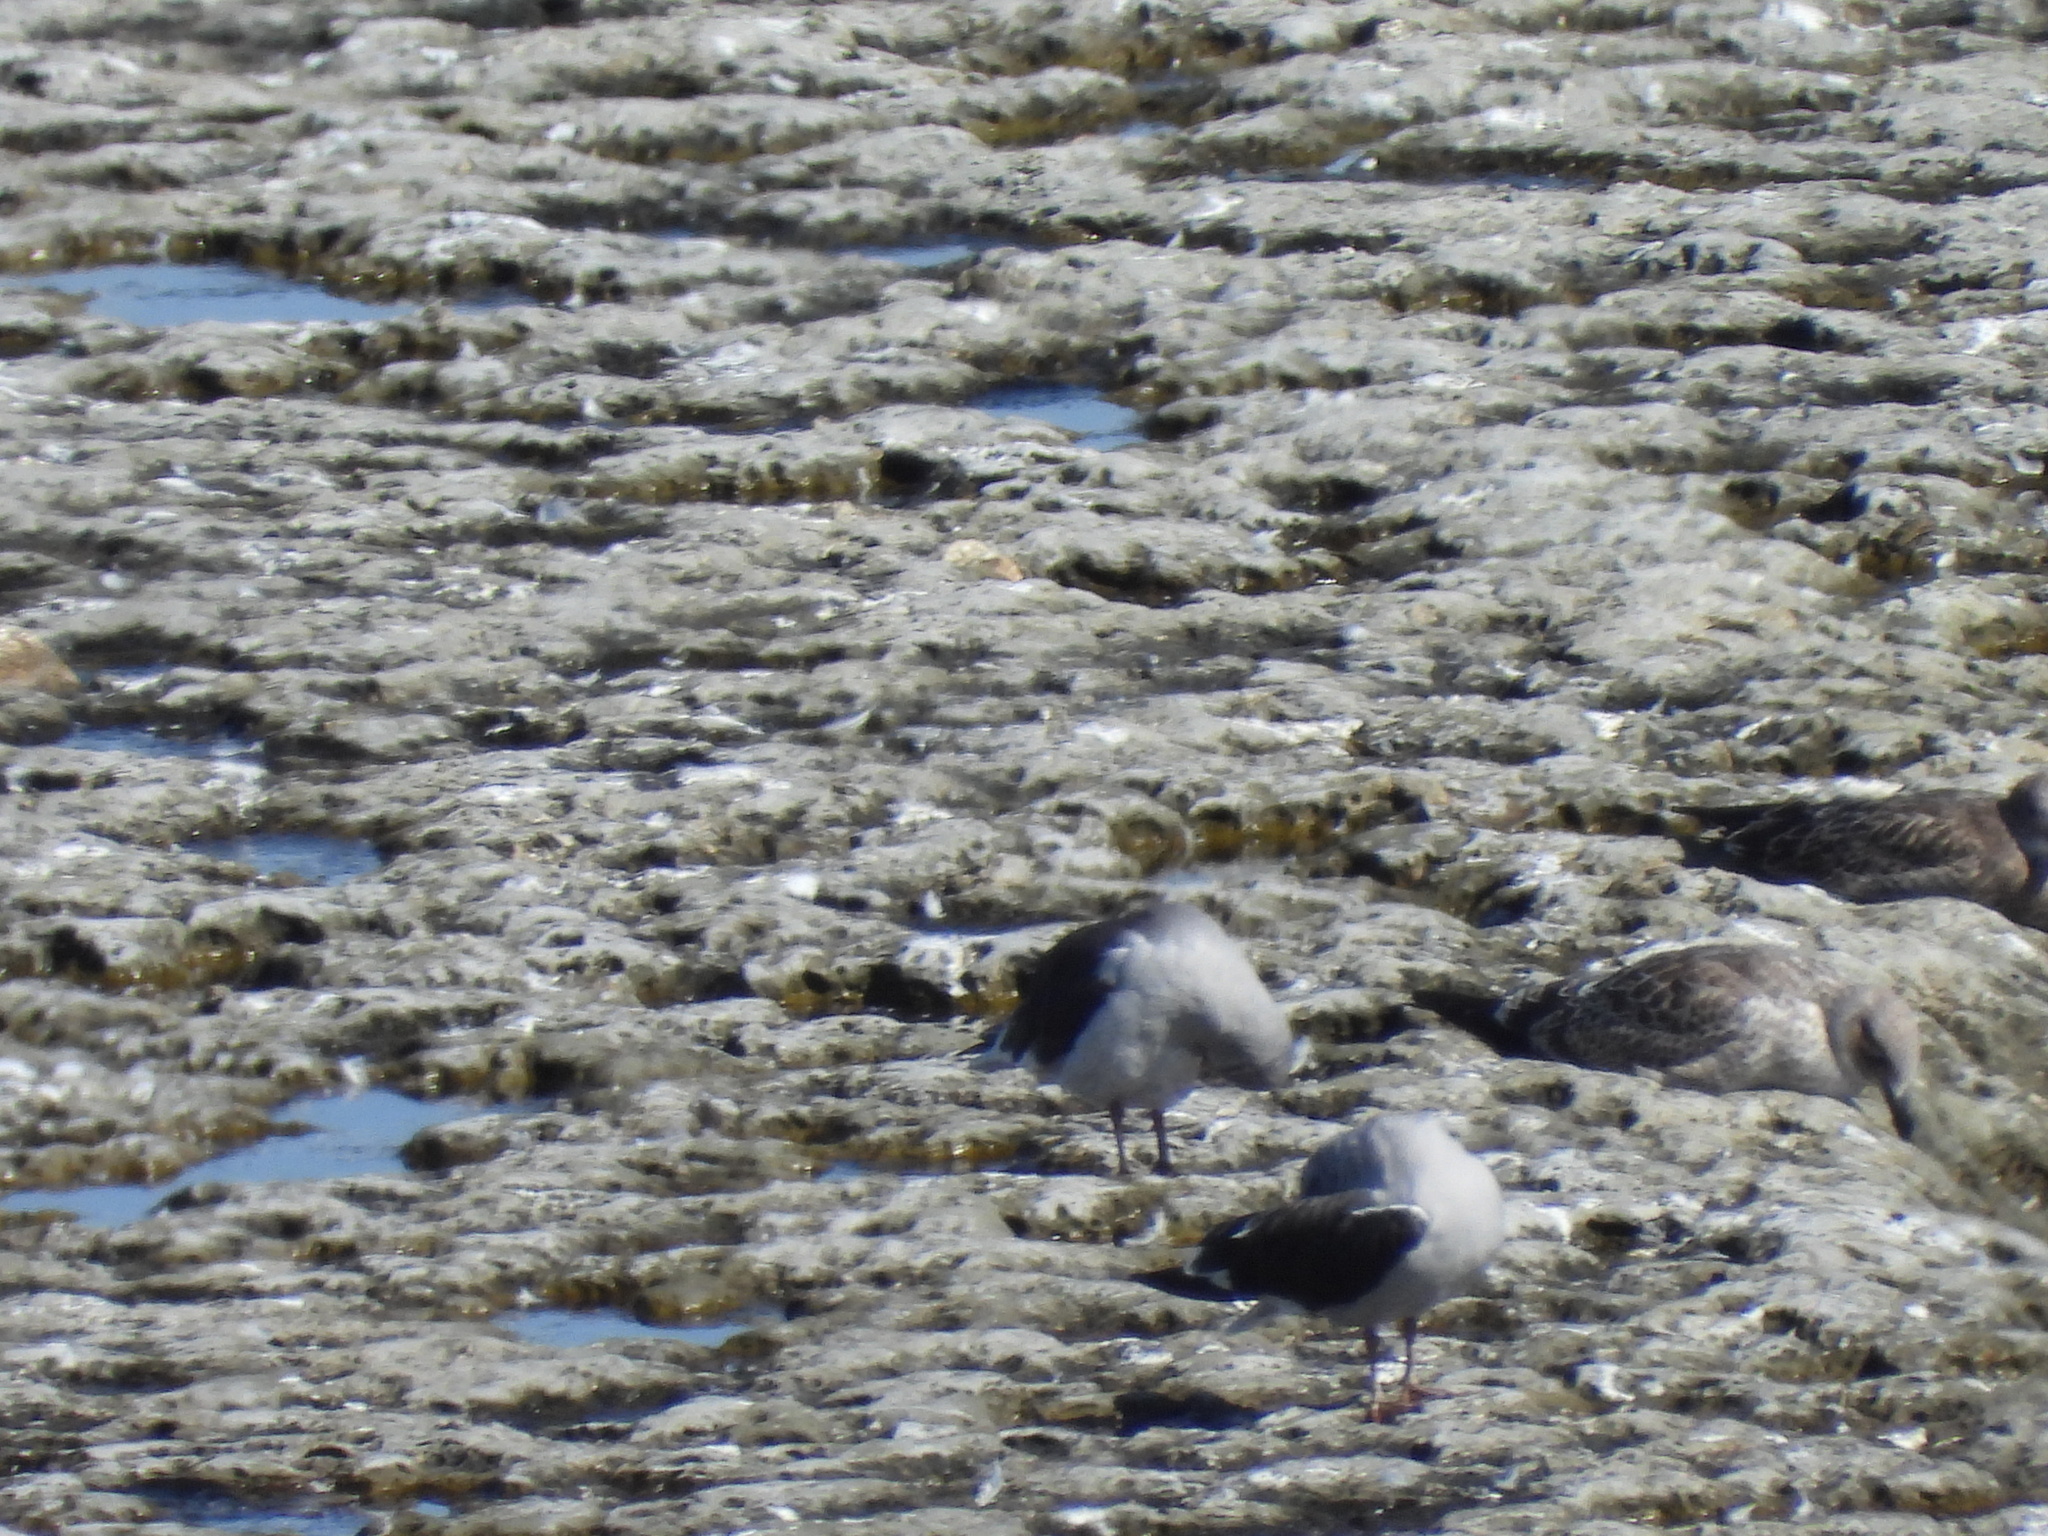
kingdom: Animalia
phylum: Chordata
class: Aves
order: Charadriiformes
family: Laridae
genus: Leucophaeus
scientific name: Leucophaeus scoresbii
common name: Dolphin gull
